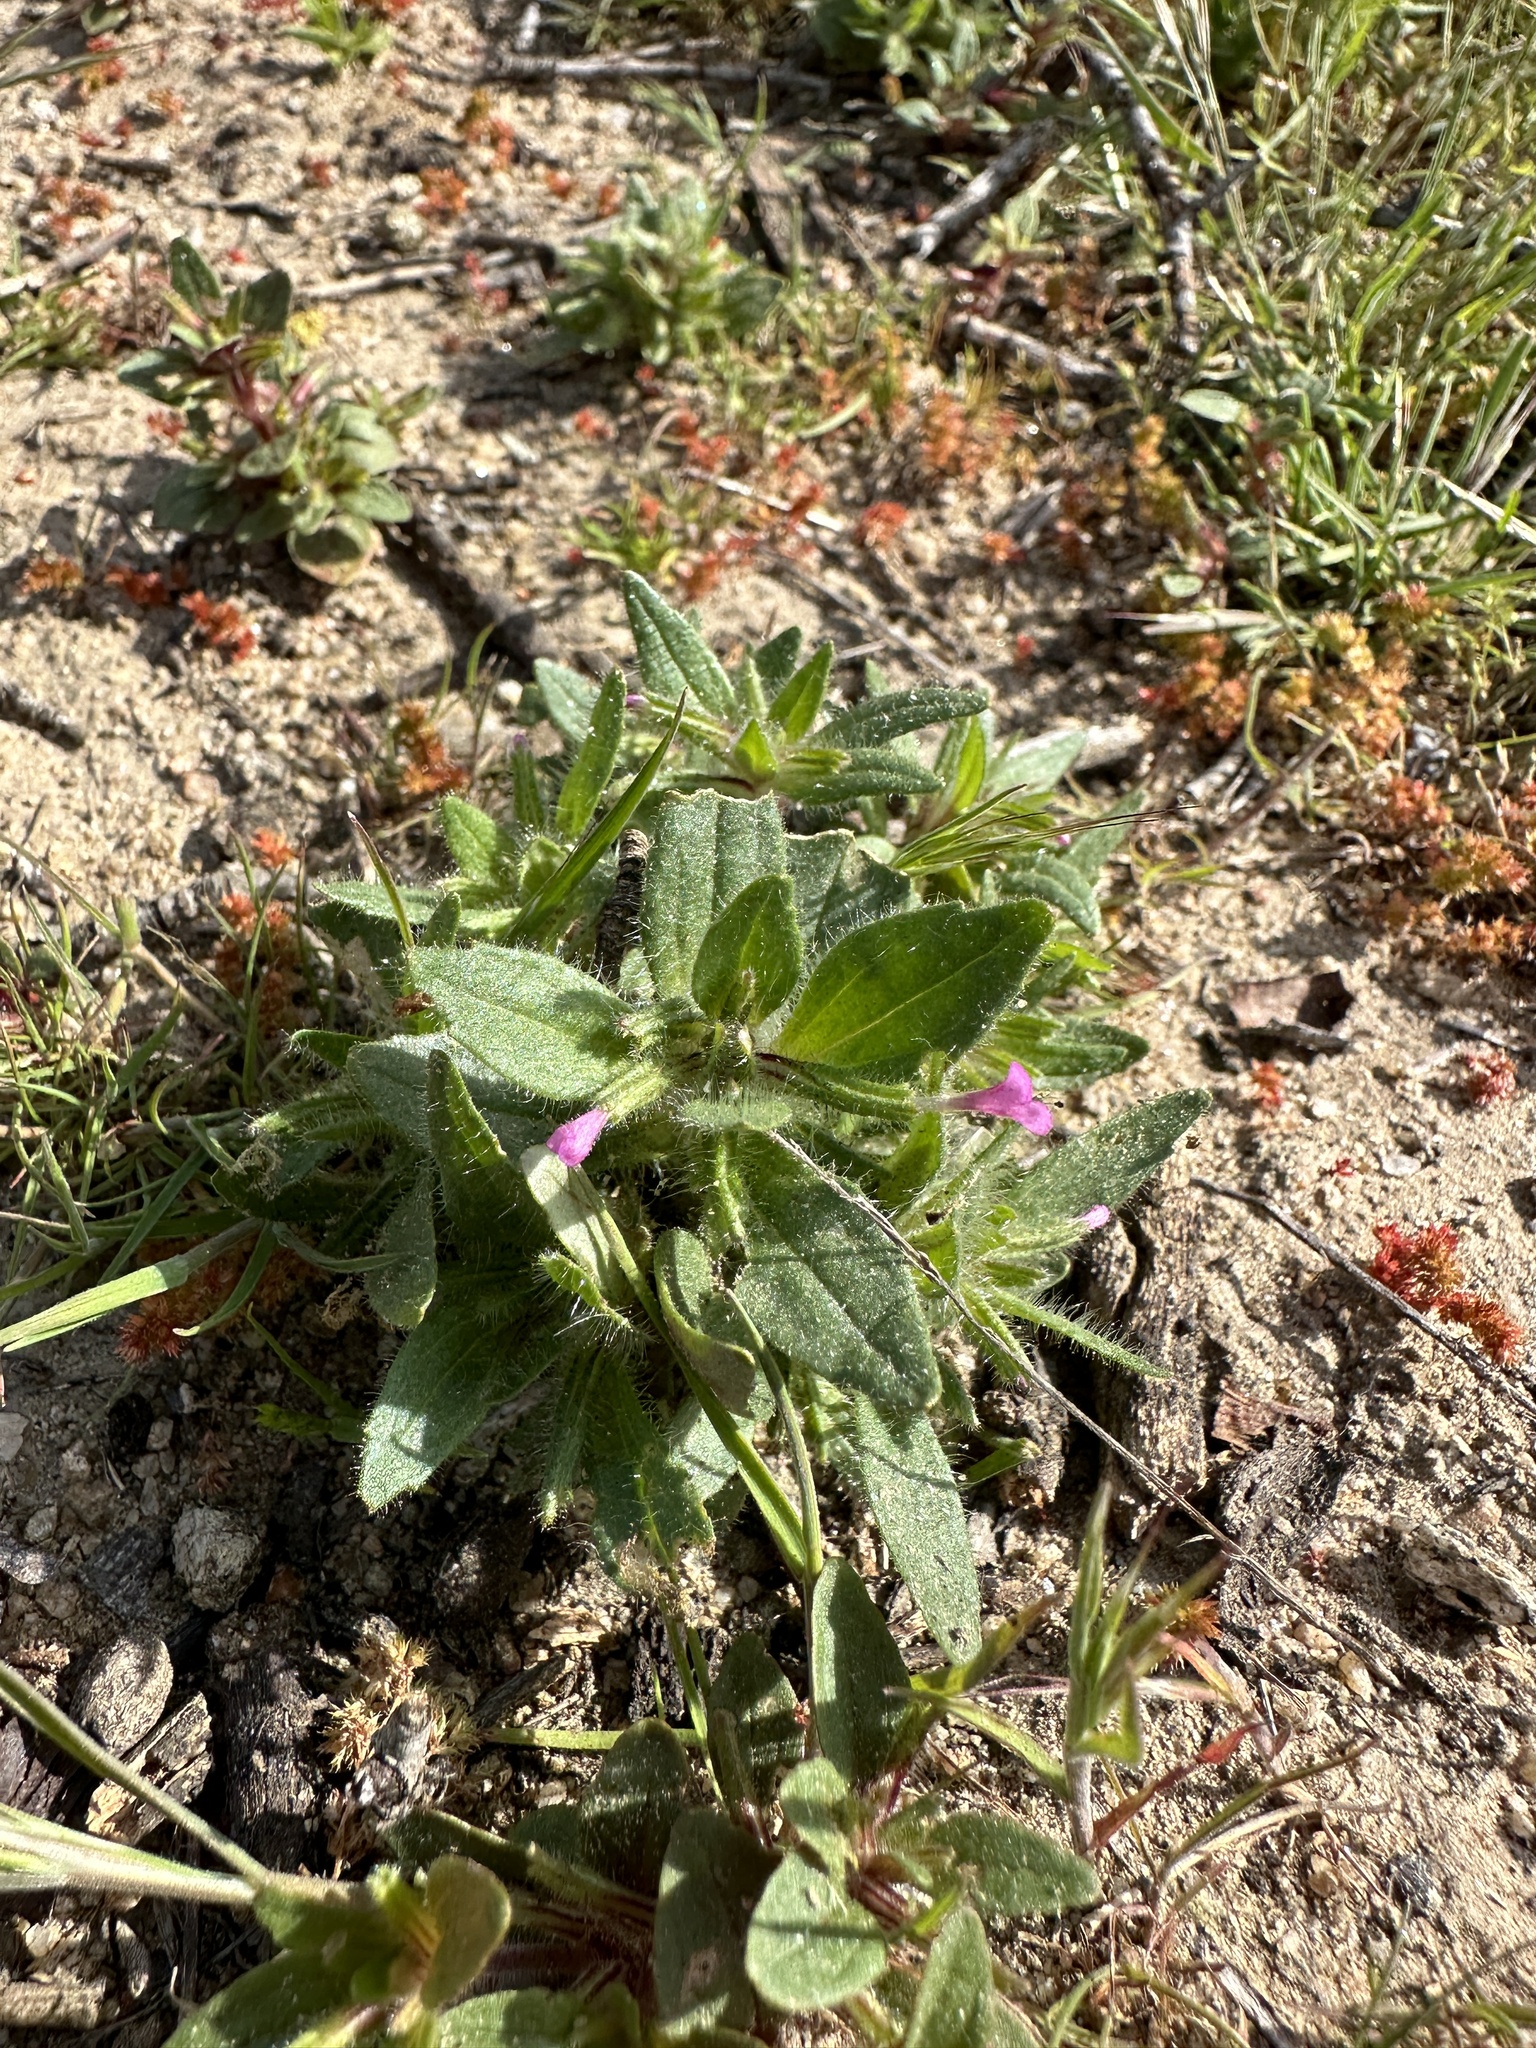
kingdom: Plantae
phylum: Tracheophyta
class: Magnoliopsida
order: Lamiales
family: Phrymaceae
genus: Diplacus
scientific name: Diplacus congdonii
